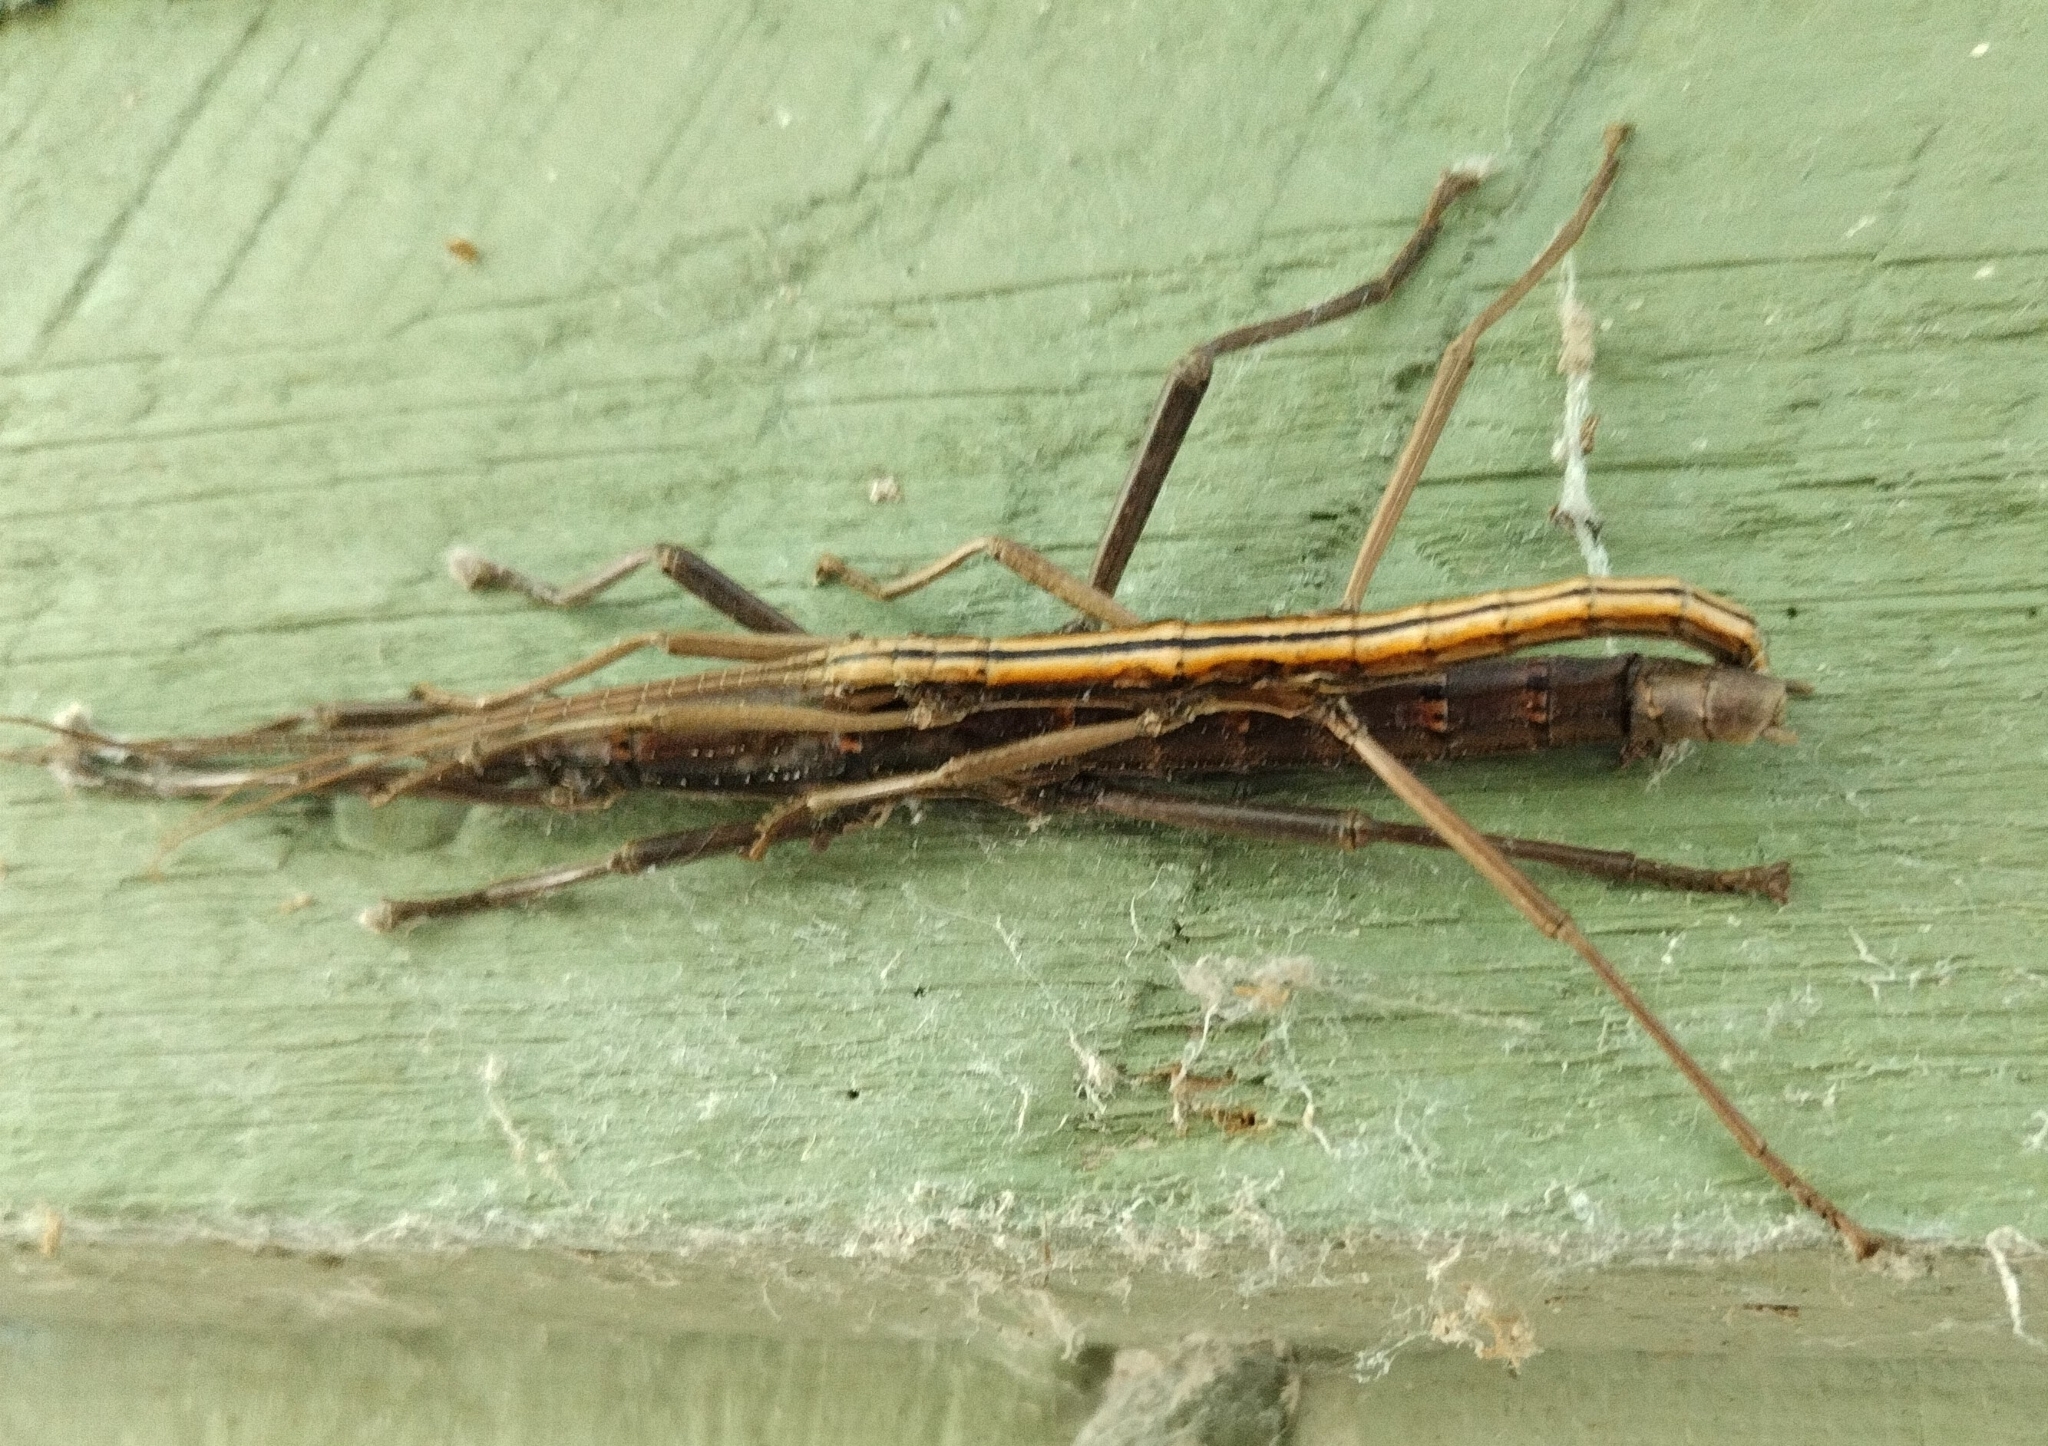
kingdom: Animalia
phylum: Arthropoda
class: Insecta
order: Phasmida
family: Pseudophasmatidae
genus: Anisomorpha
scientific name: Anisomorpha buprestoides
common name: Florida stick insect
